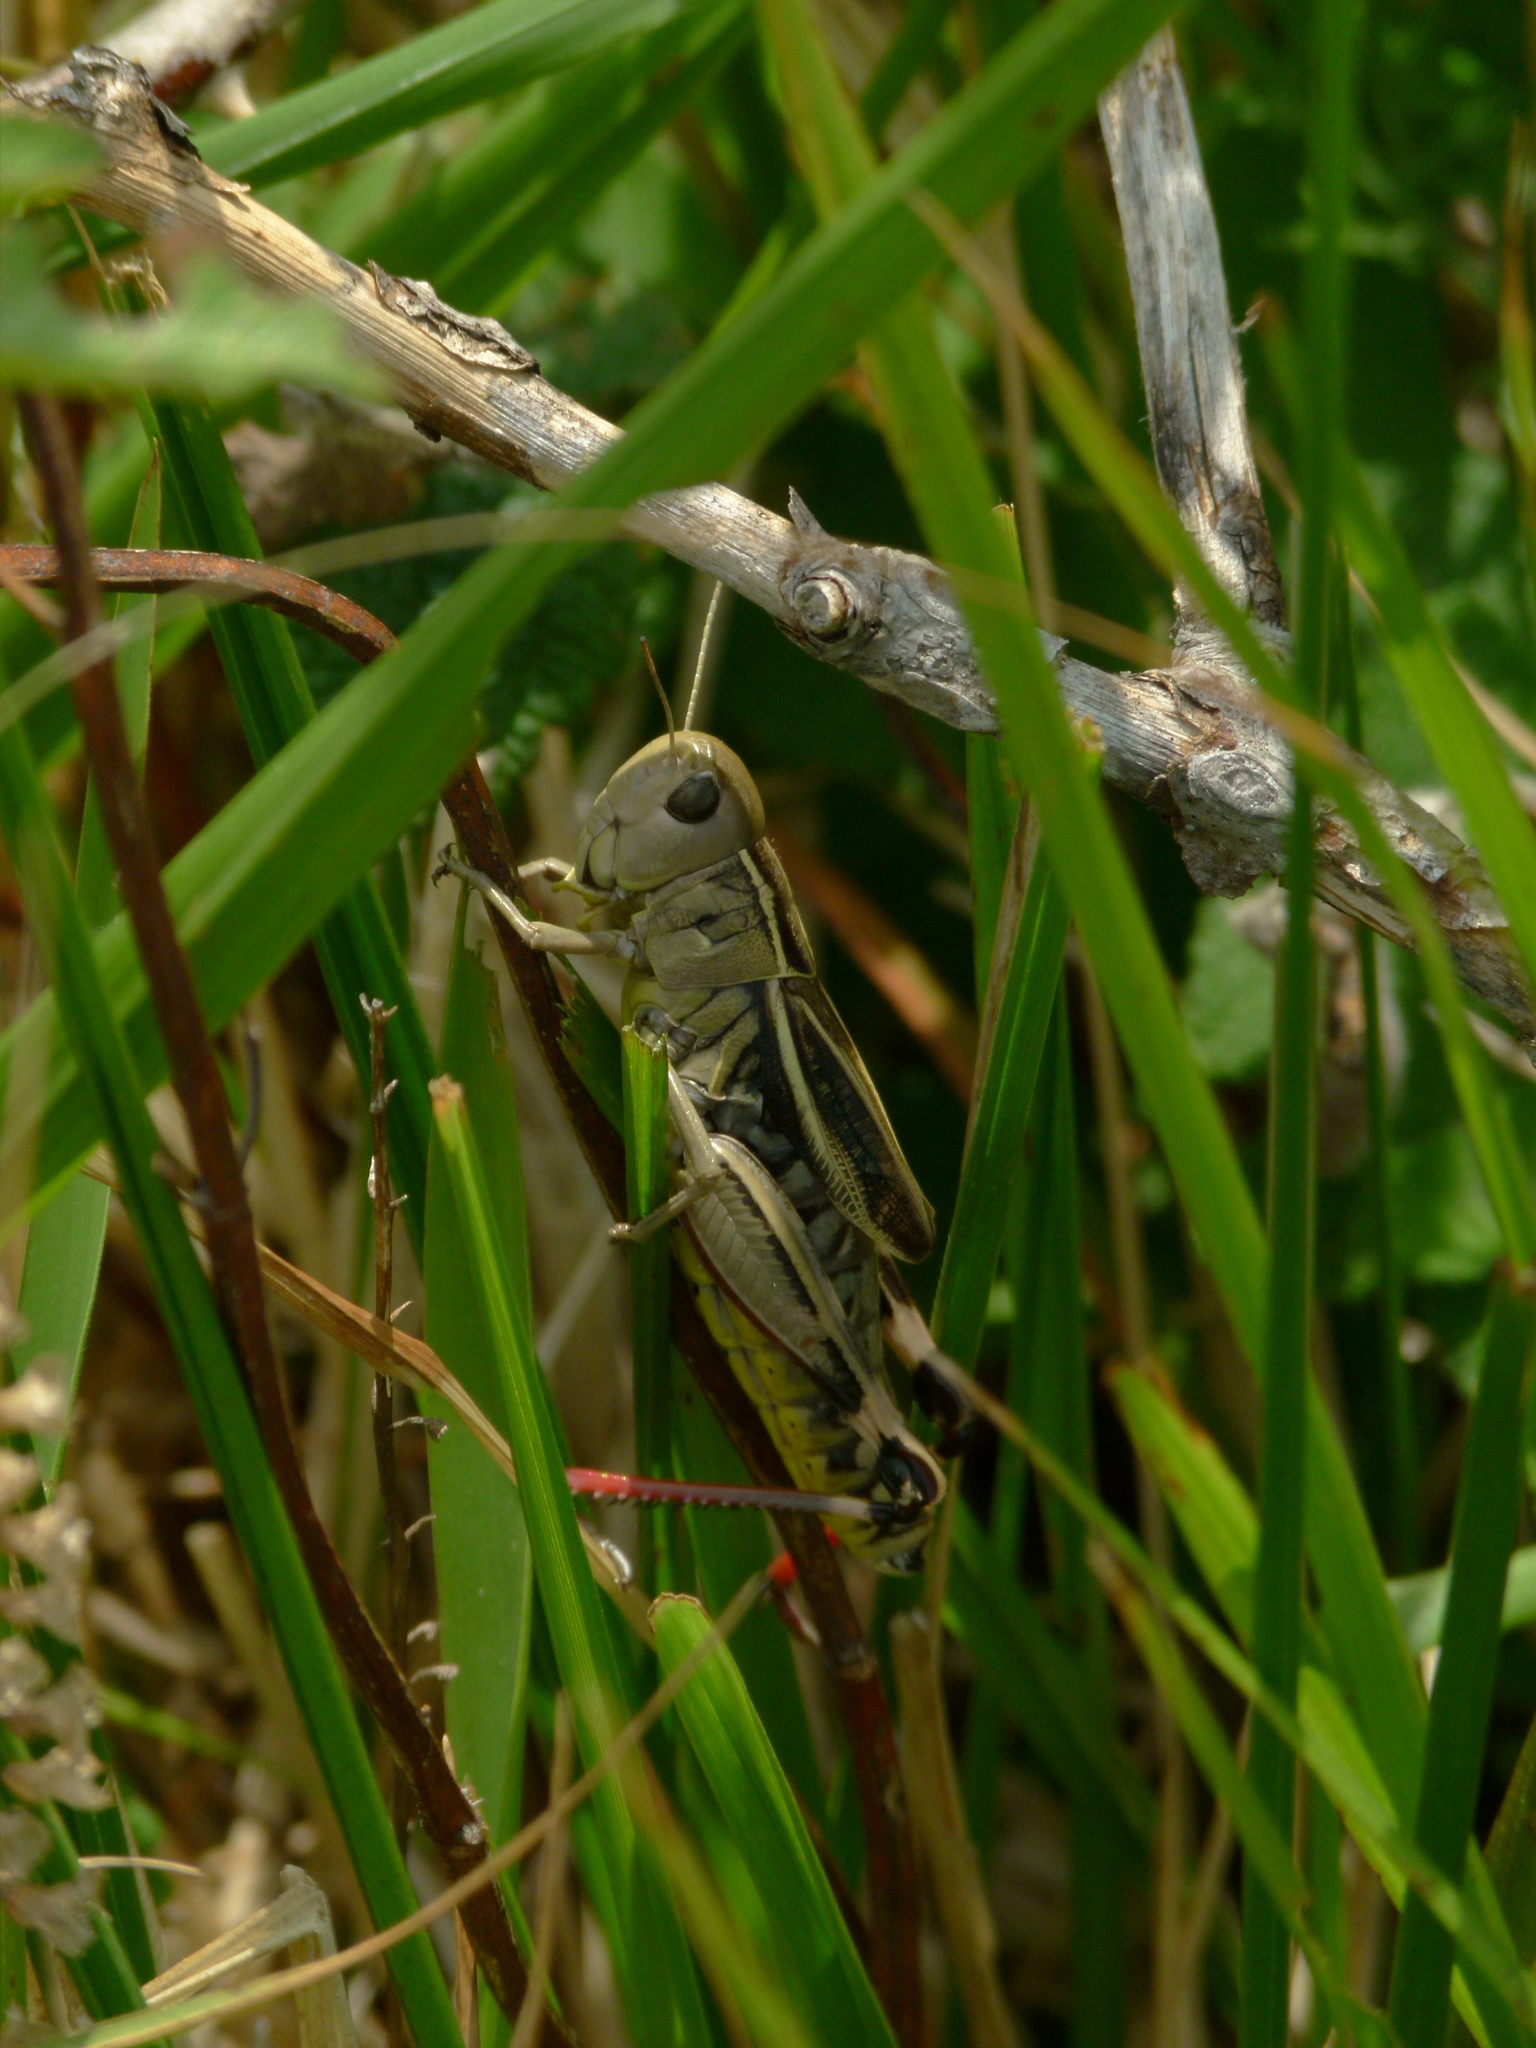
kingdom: Animalia
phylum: Arthropoda
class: Insecta
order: Orthoptera
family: Acrididae
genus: Arcyptera
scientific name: Arcyptera fusca
